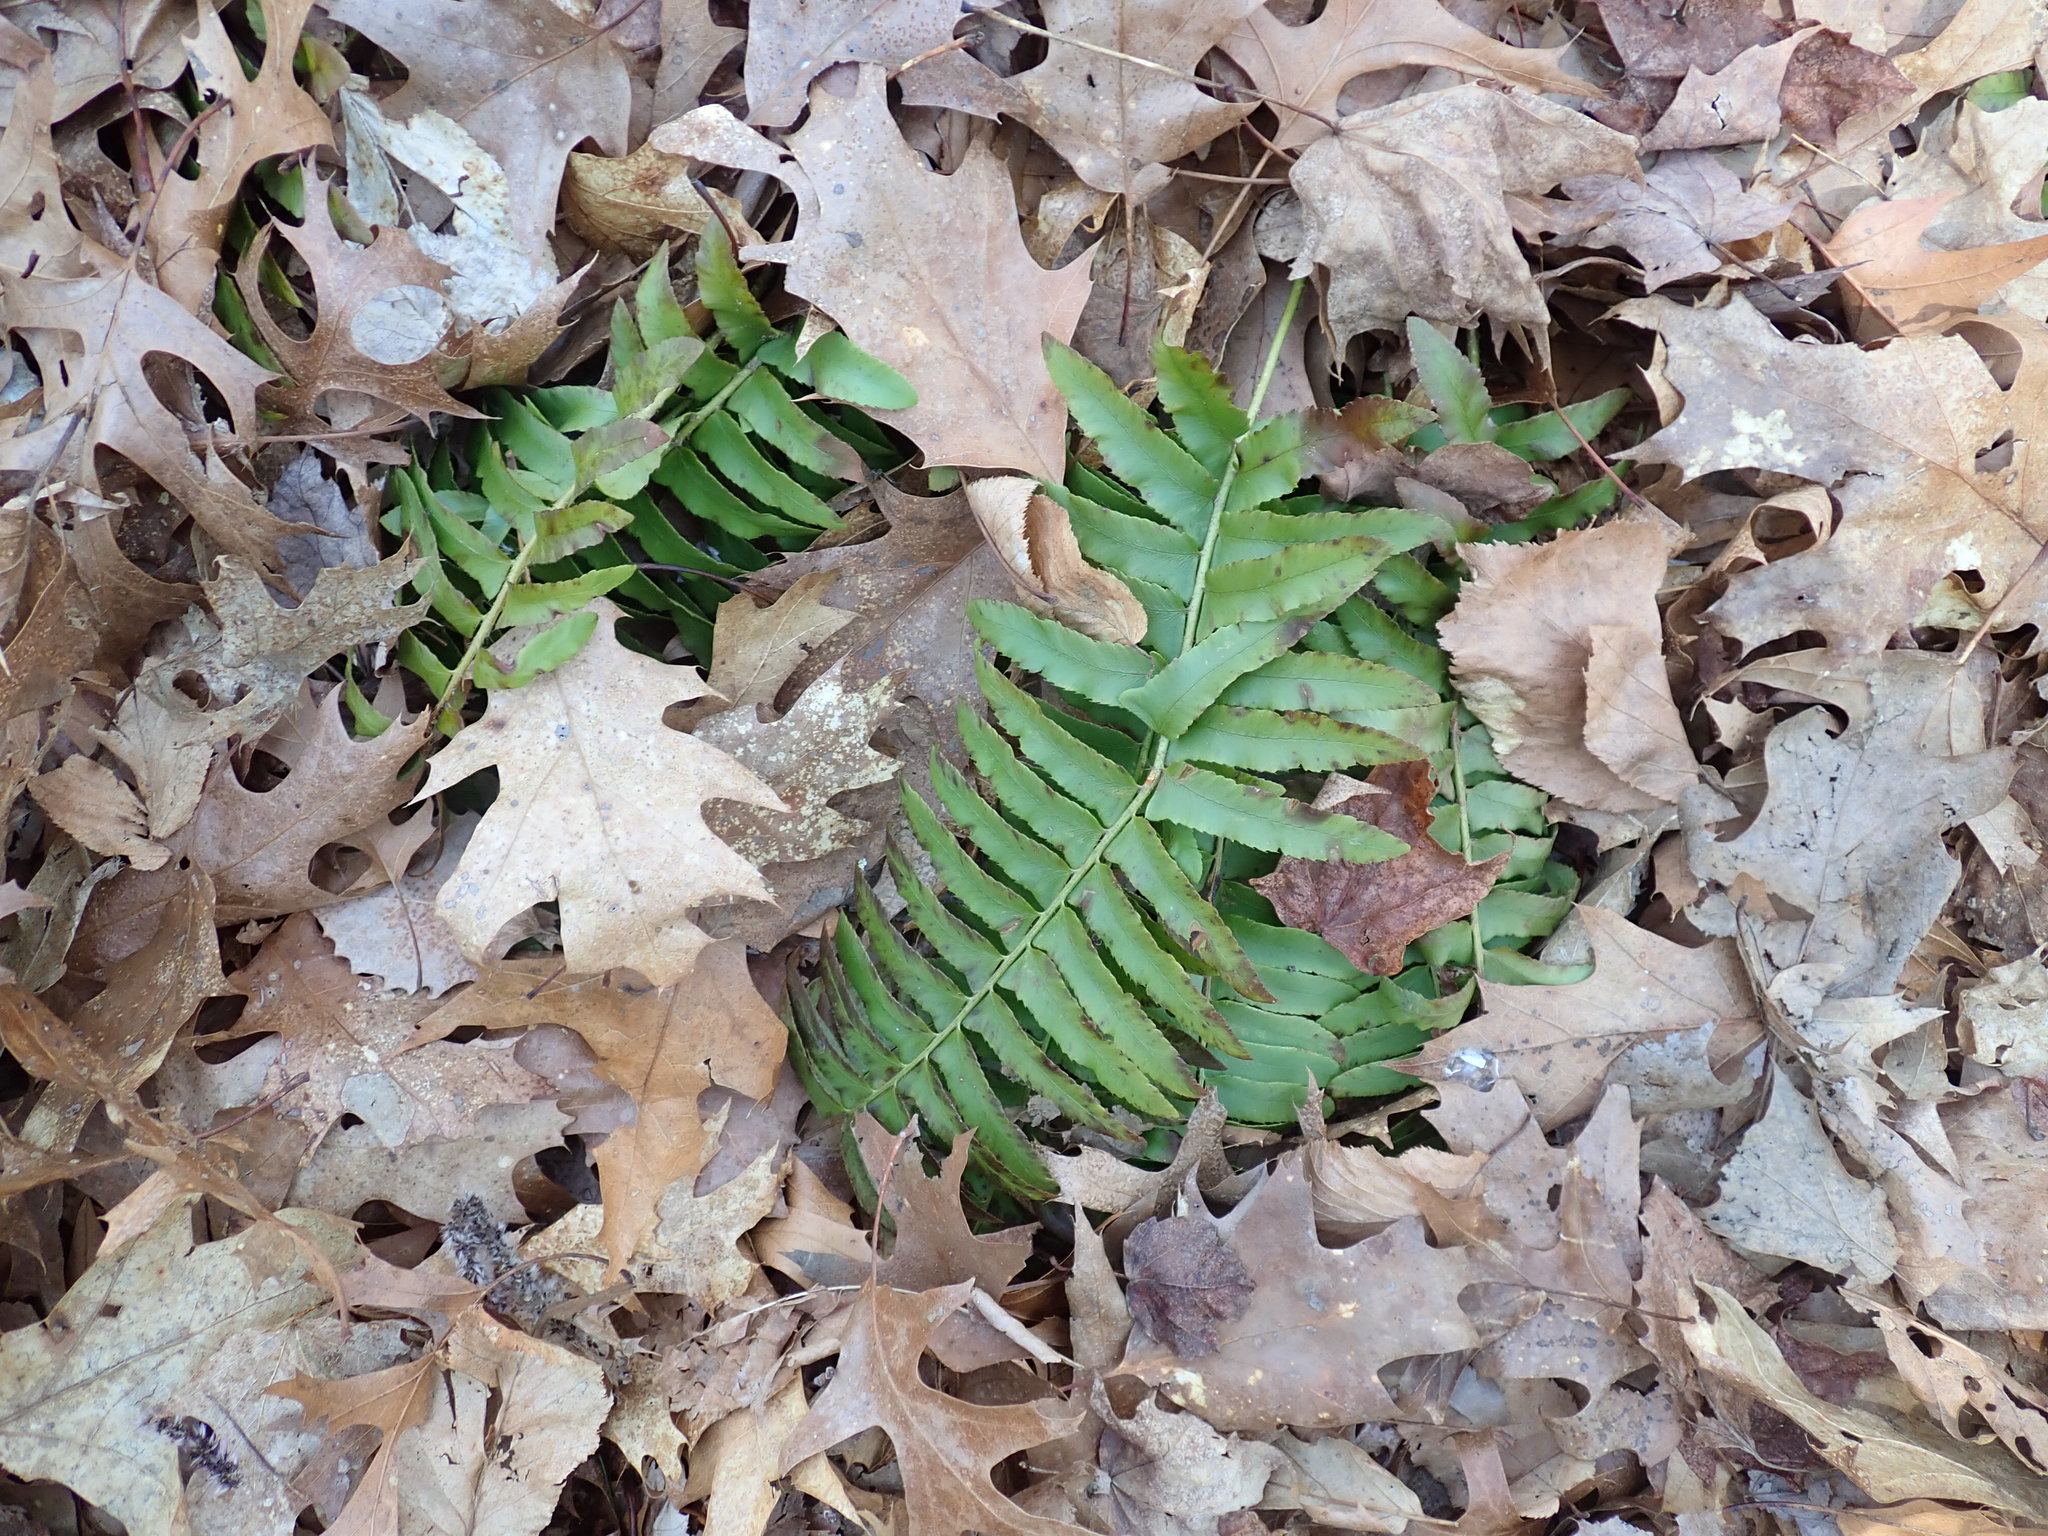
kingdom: Plantae
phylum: Tracheophyta
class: Polypodiopsida
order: Polypodiales
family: Dryopteridaceae
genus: Polystichum
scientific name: Polystichum acrostichoides
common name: Christmas fern
